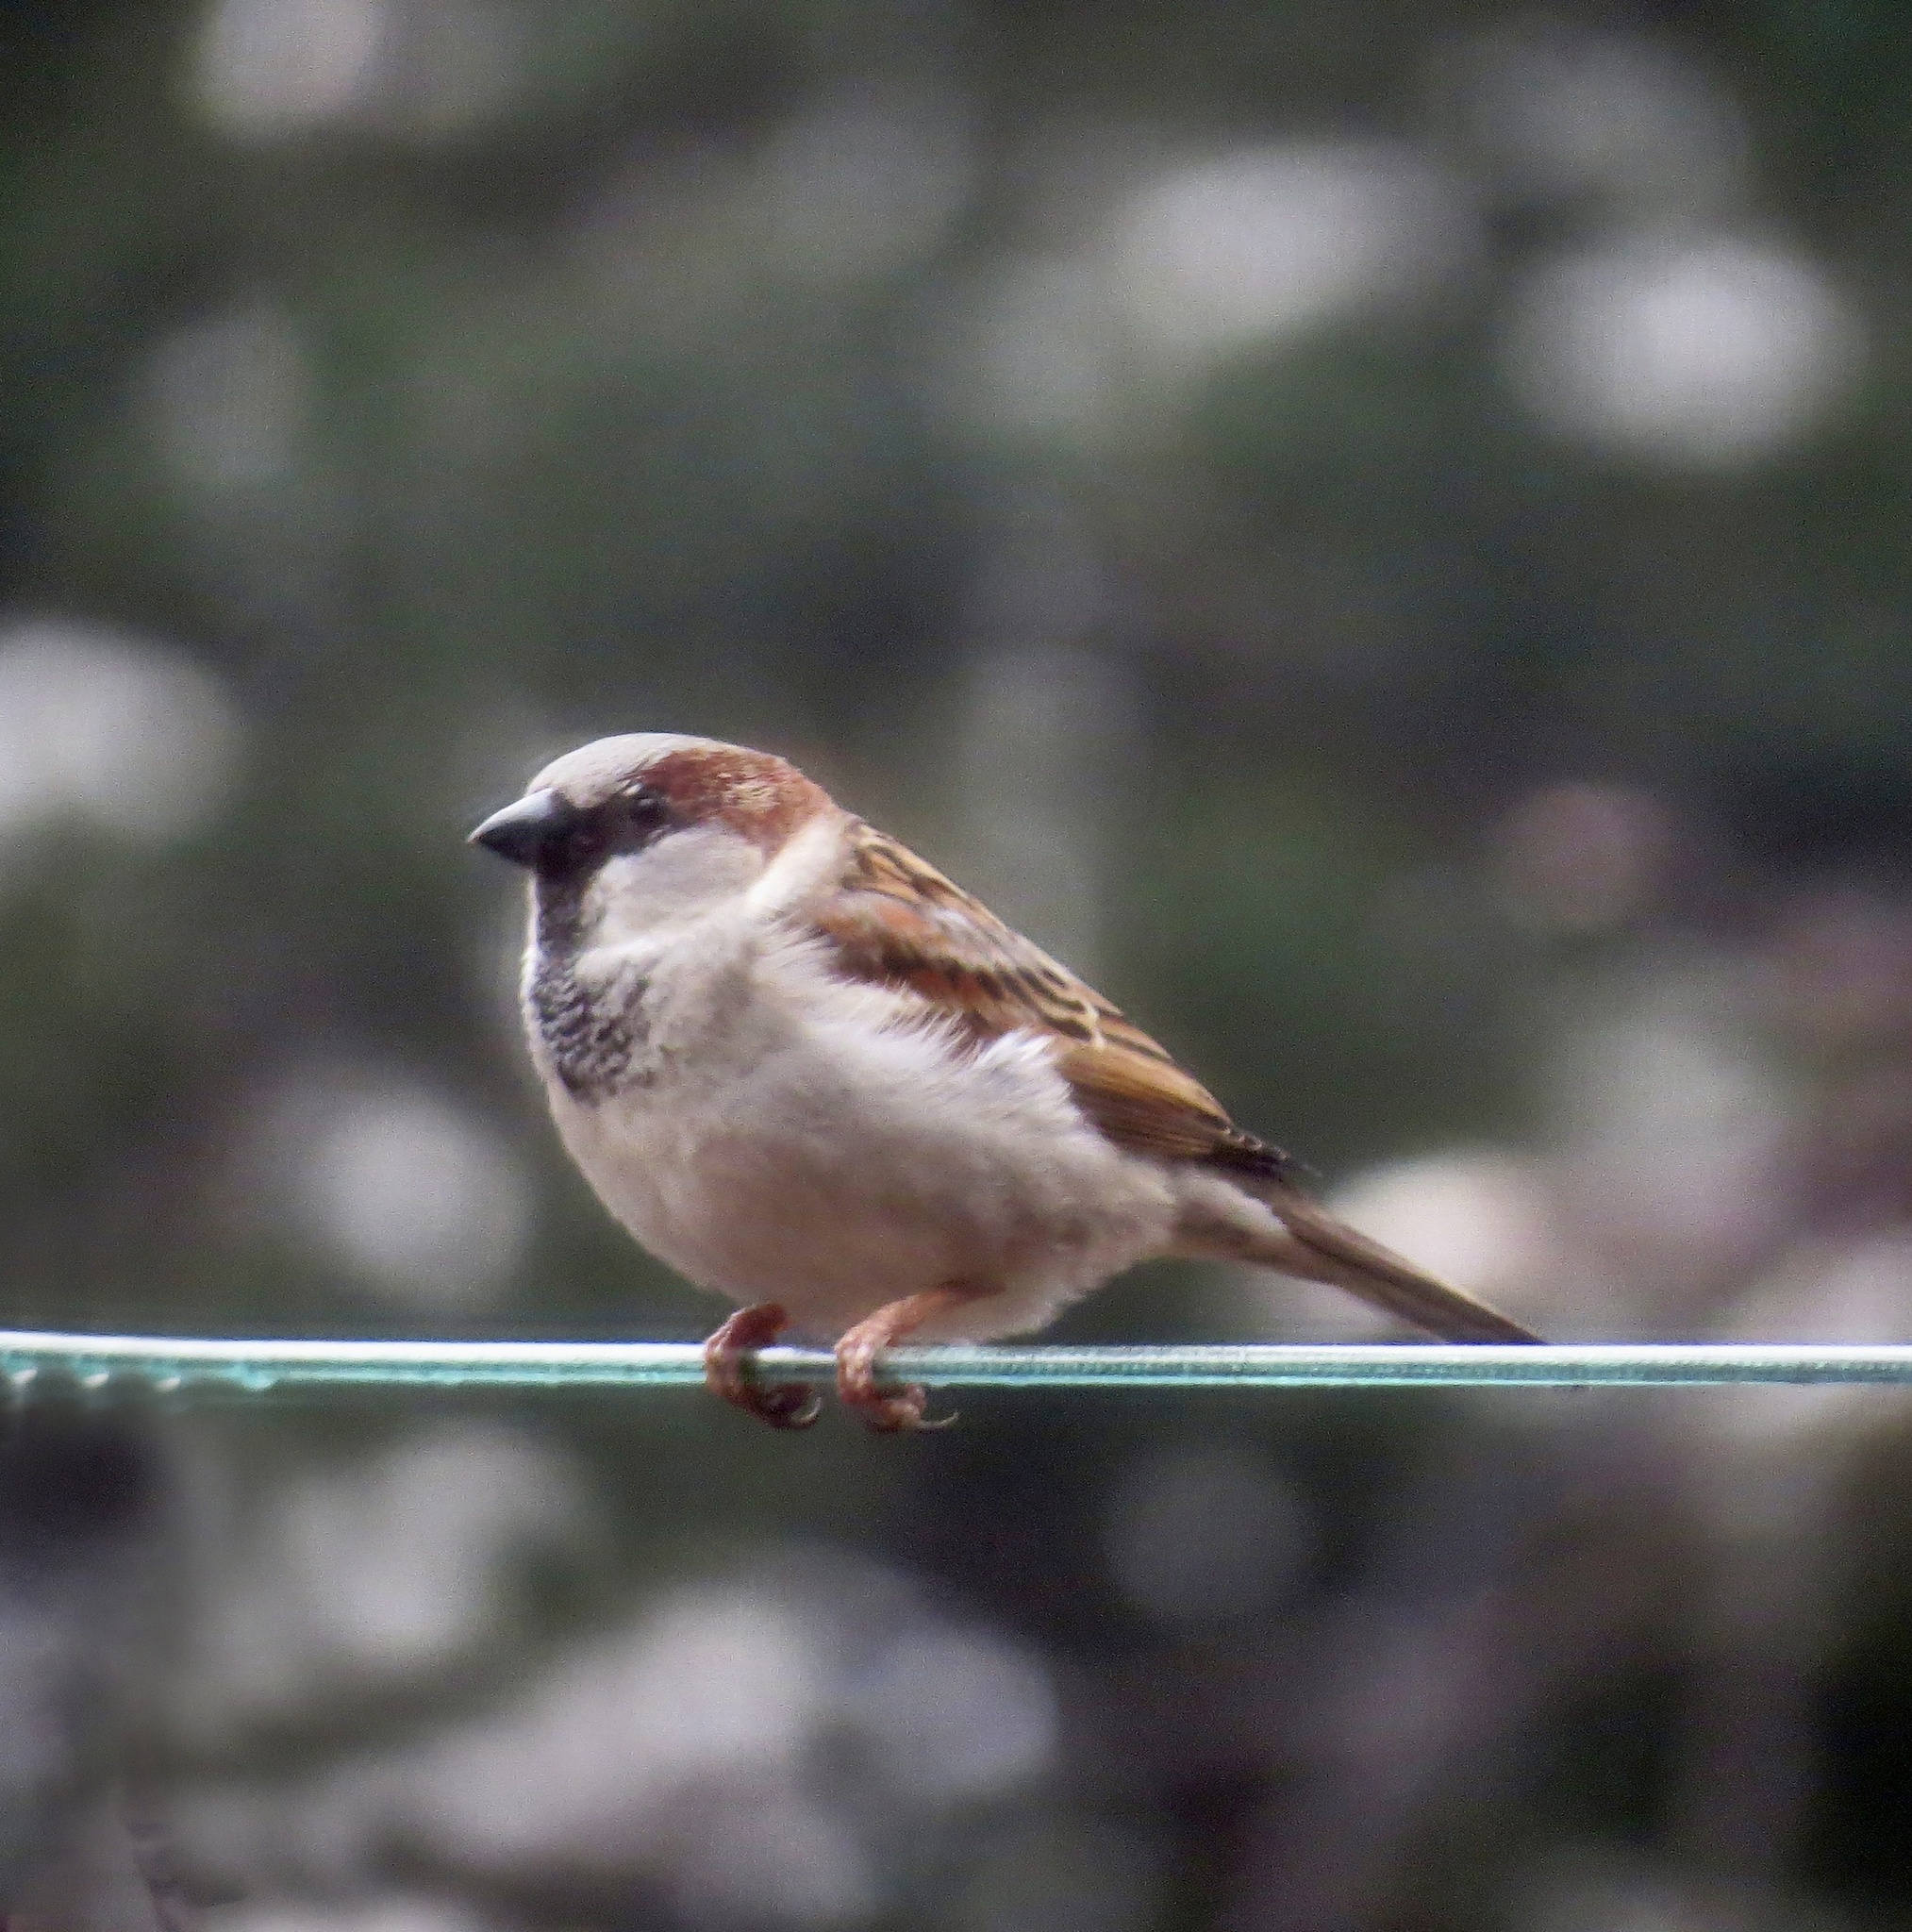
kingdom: Animalia
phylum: Chordata
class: Aves
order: Passeriformes
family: Passeridae
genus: Passer
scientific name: Passer domesticus
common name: House sparrow
